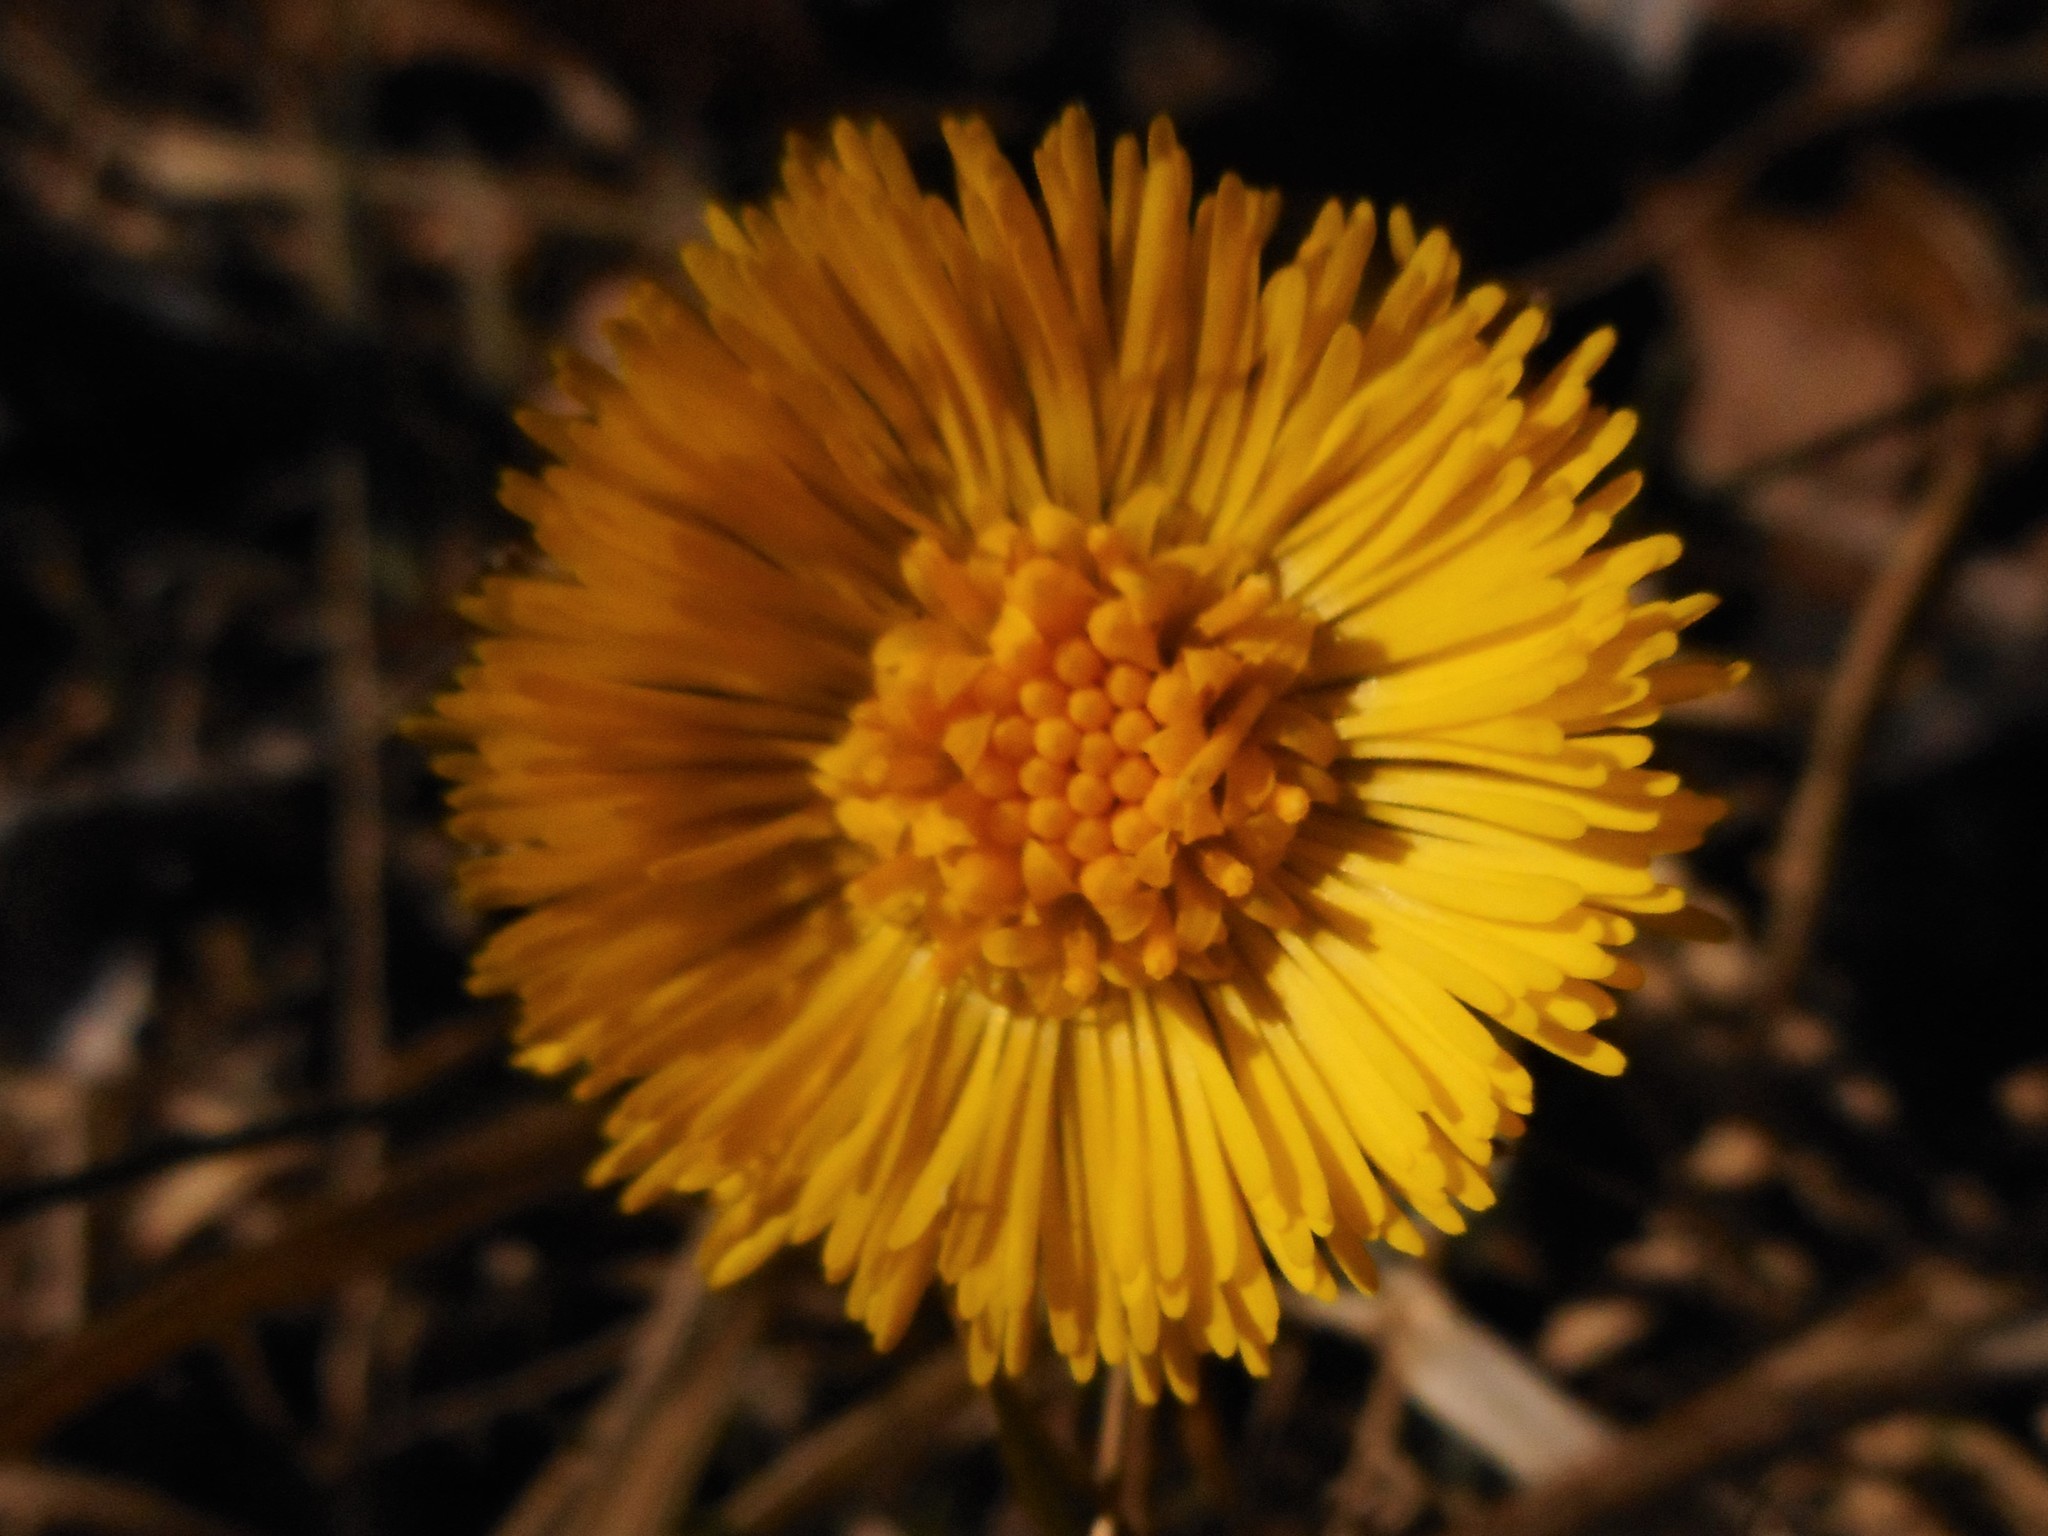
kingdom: Plantae
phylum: Tracheophyta
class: Magnoliopsida
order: Asterales
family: Asteraceae
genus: Tussilago
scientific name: Tussilago farfara
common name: Coltsfoot
